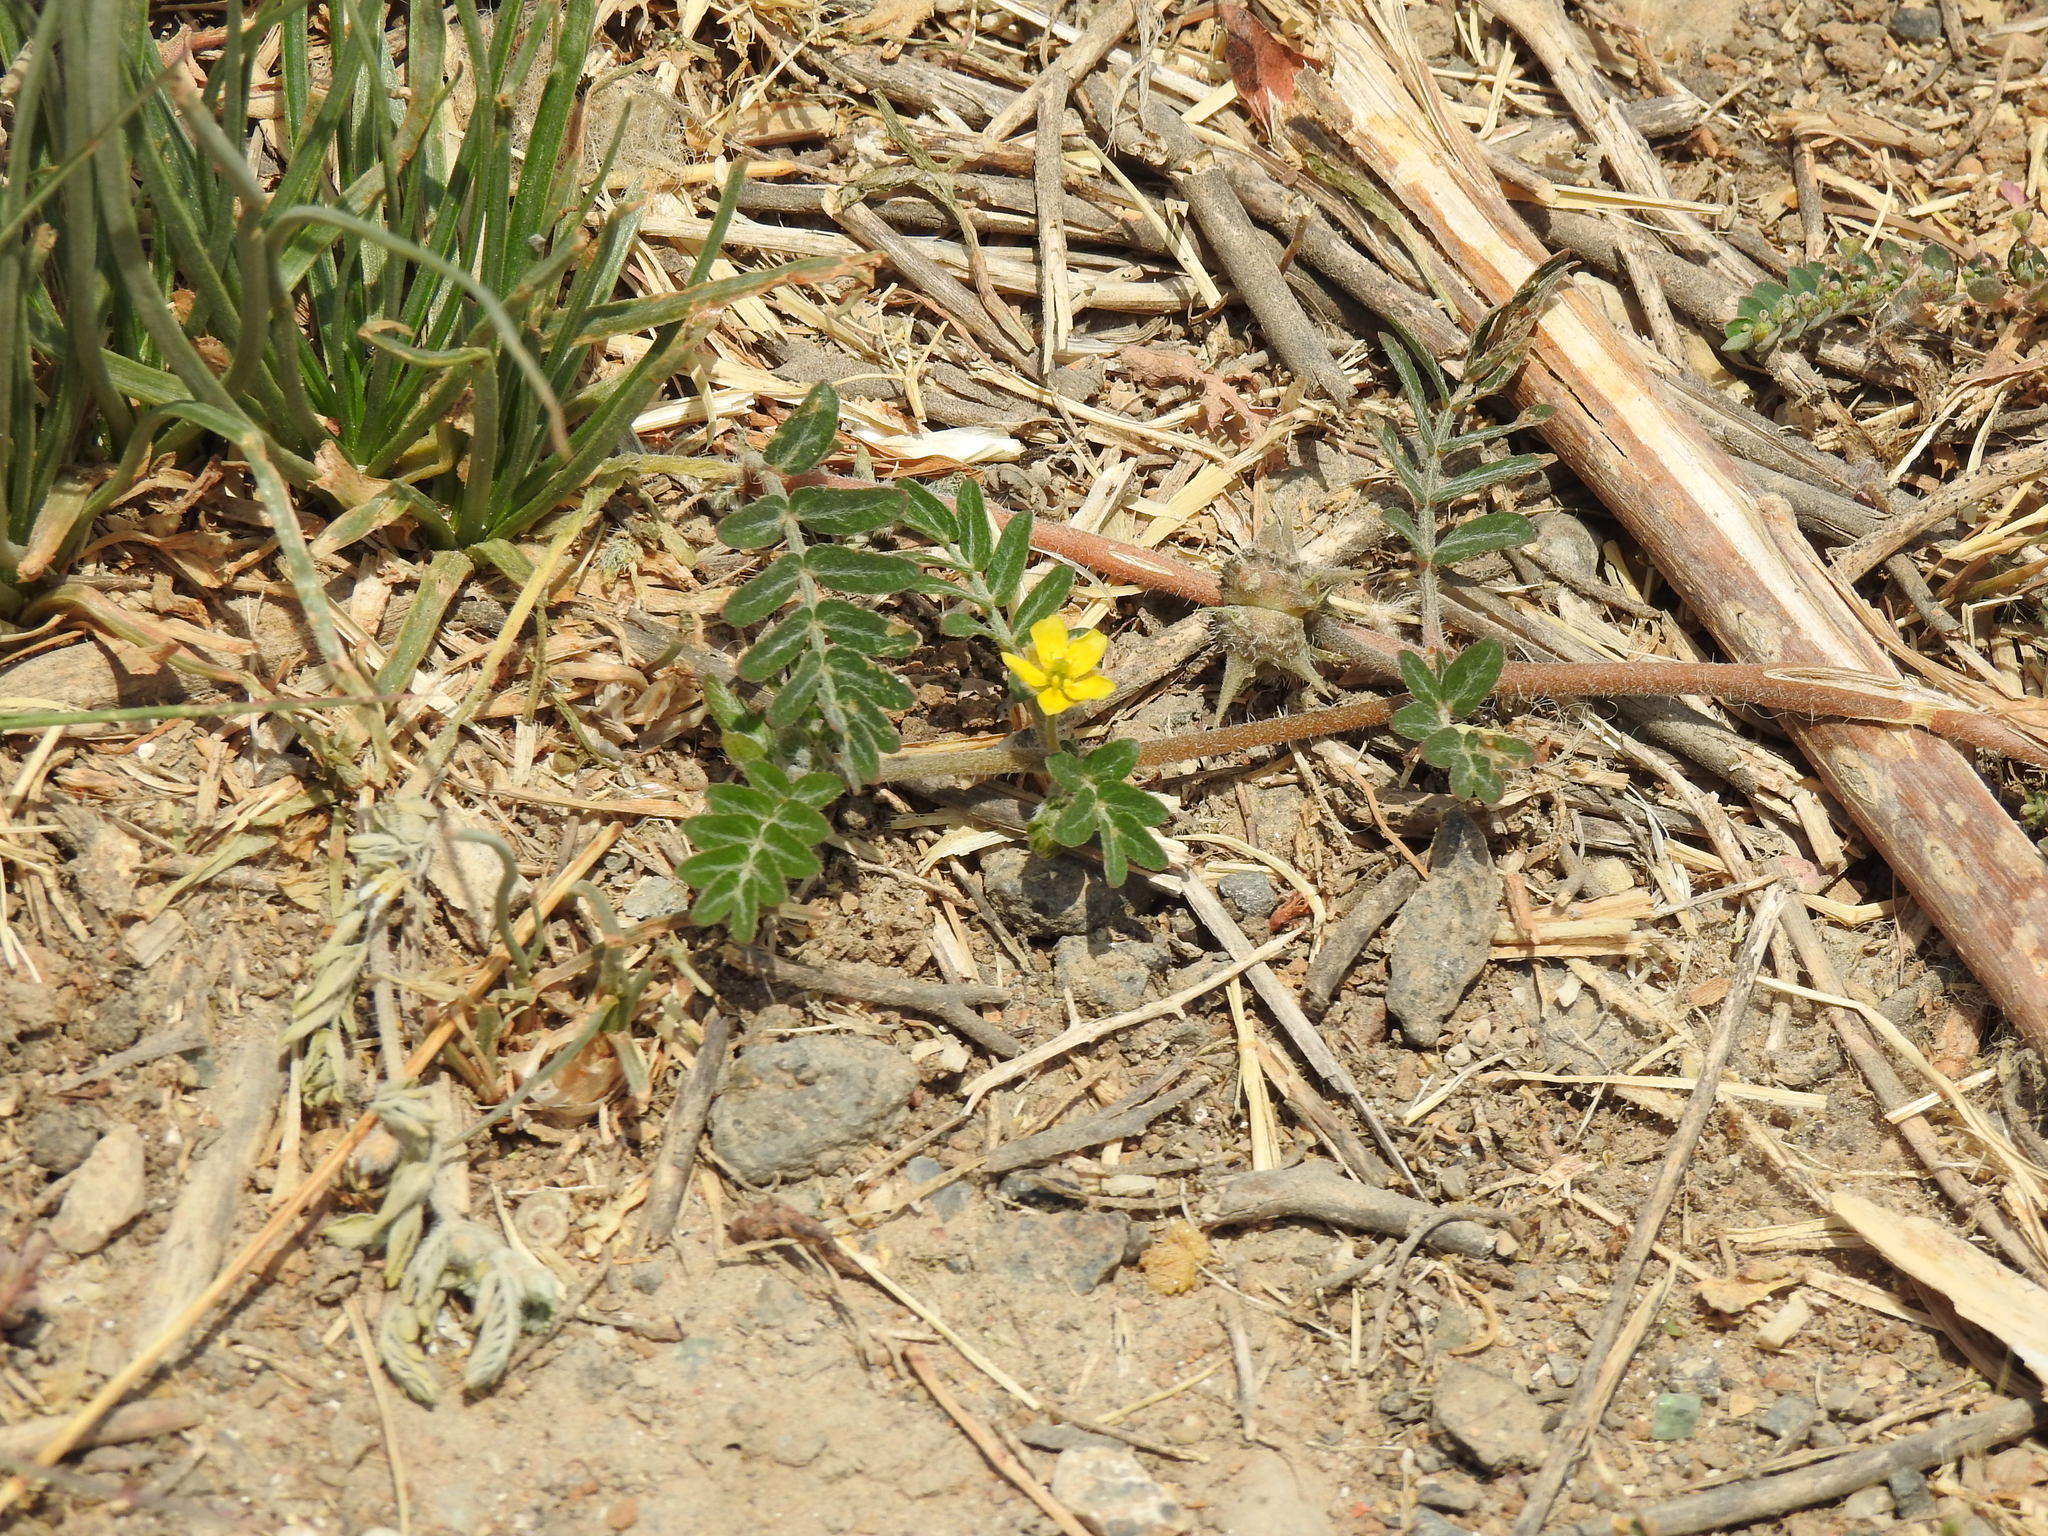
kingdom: Plantae
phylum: Tracheophyta
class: Magnoliopsida
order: Zygophyllales
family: Zygophyllaceae
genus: Tribulus
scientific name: Tribulus terrestris
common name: Puncturevine
